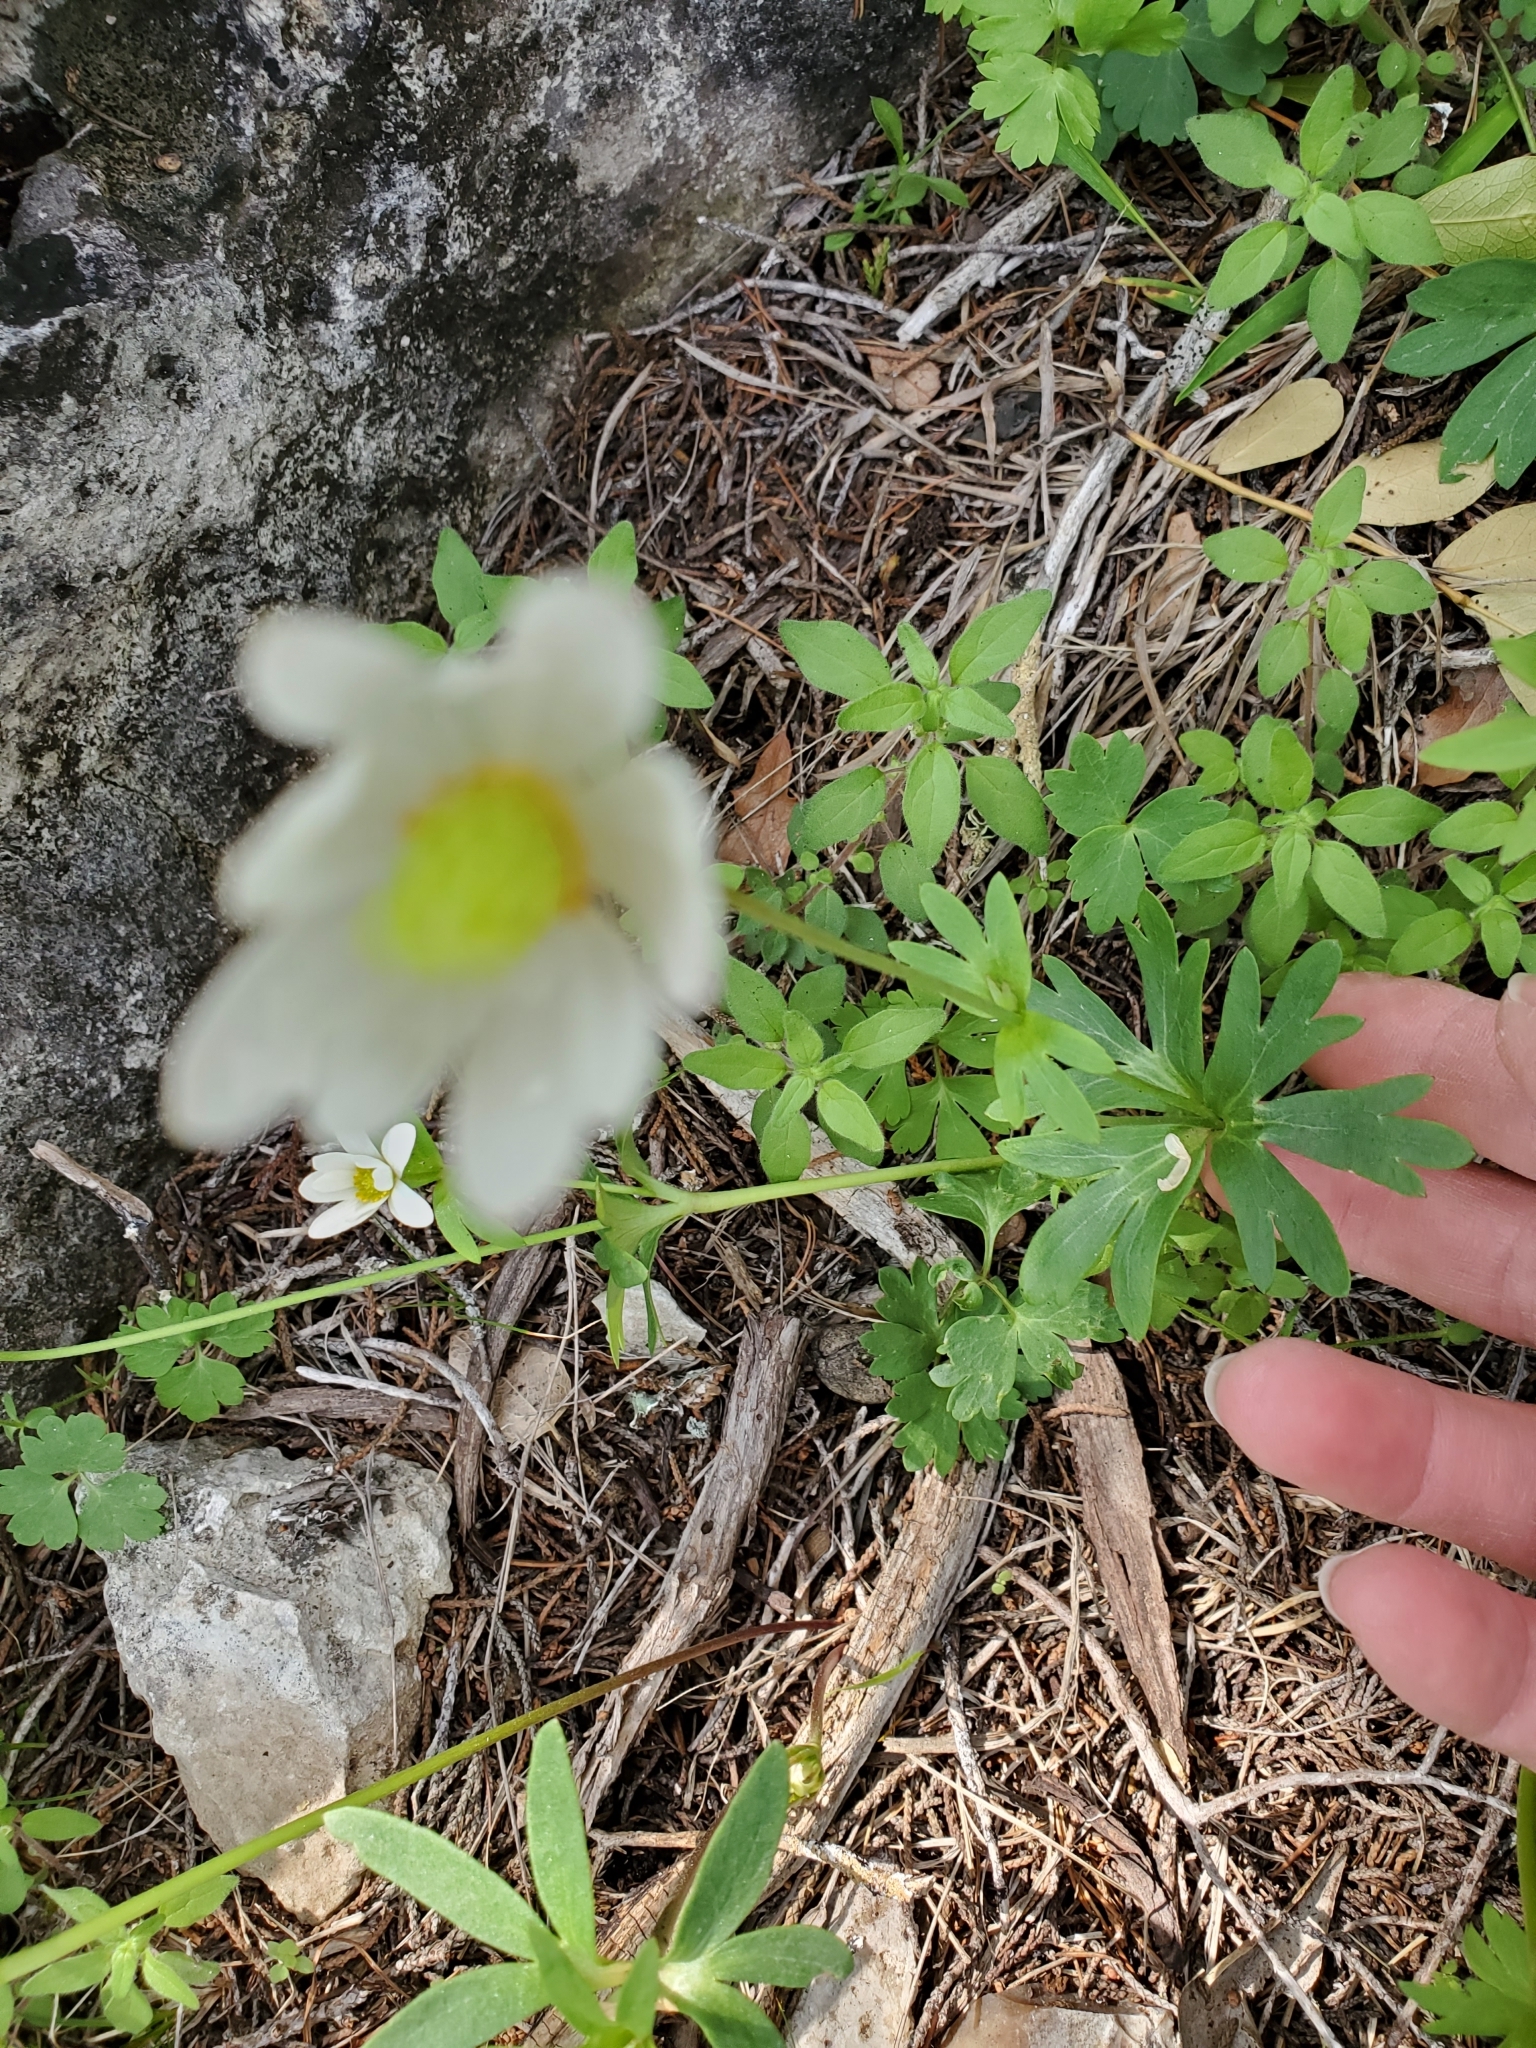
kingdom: Plantae
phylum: Tracheophyta
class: Magnoliopsida
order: Ranunculales
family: Ranunculaceae
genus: Anemone
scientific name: Anemone edwardsiana
